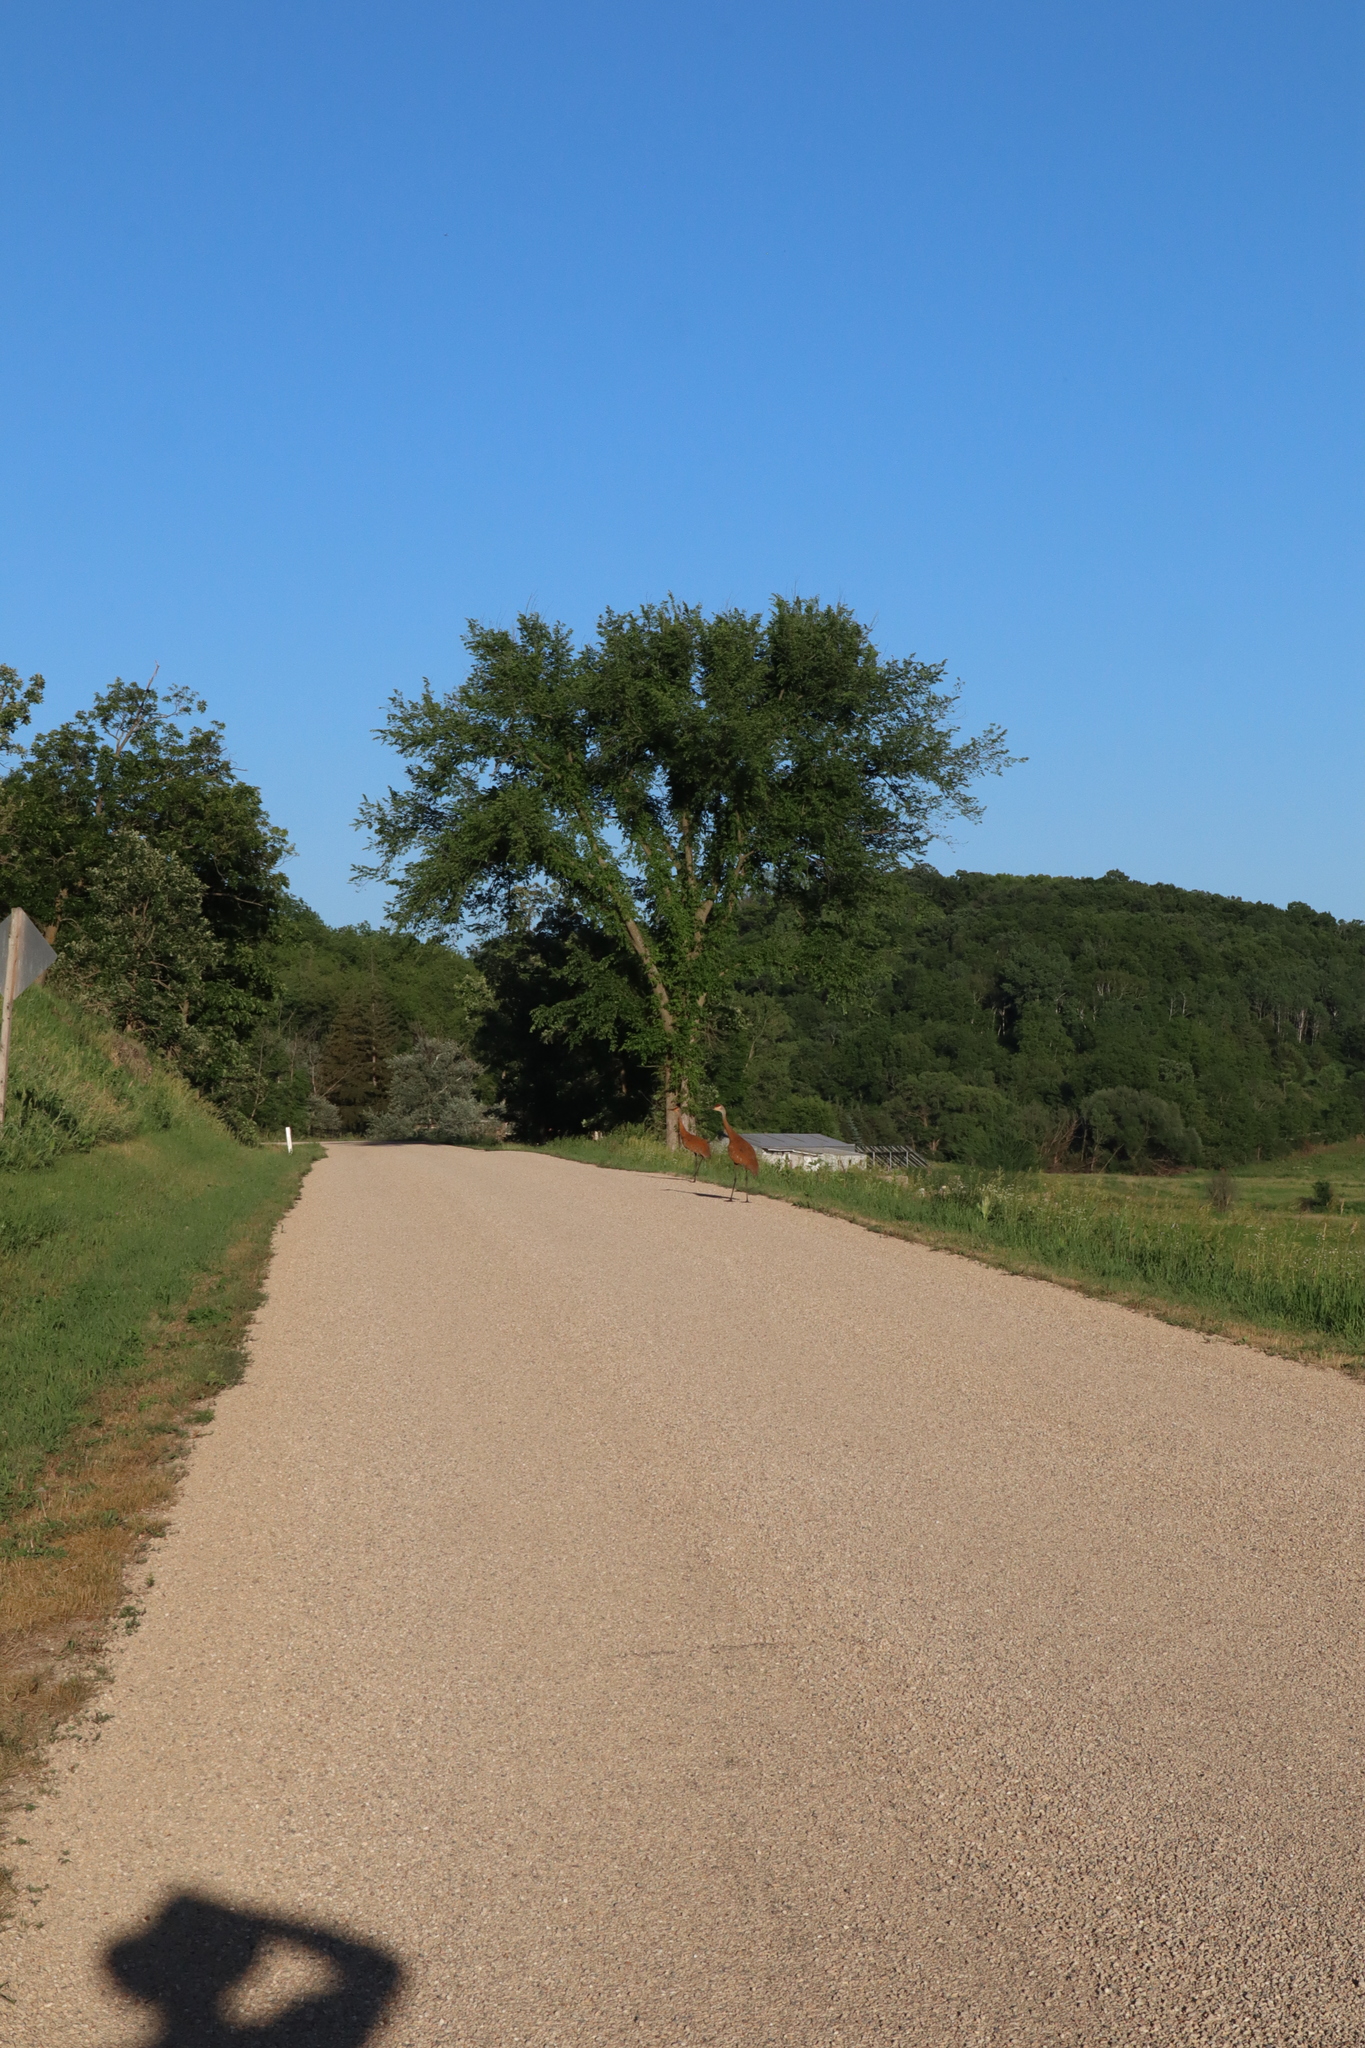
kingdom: Animalia
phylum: Chordata
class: Aves
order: Gruiformes
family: Gruidae
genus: Grus
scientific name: Grus canadensis
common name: Sandhill crane
